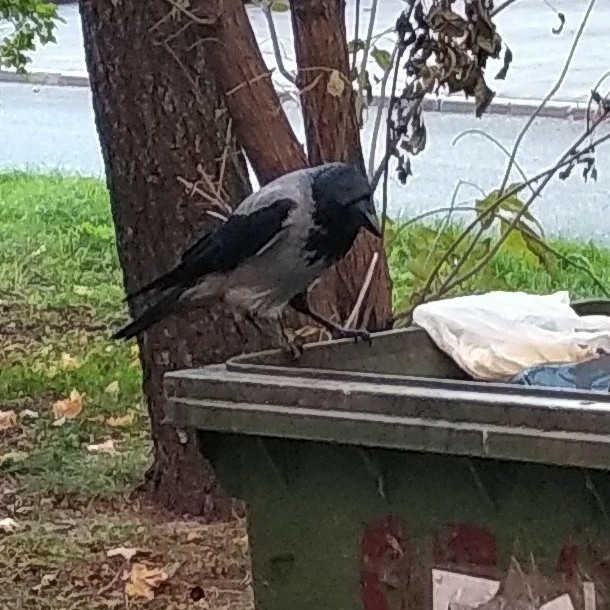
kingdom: Animalia
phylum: Chordata
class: Aves
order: Passeriformes
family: Corvidae
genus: Corvus
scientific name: Corvus cornix
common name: Hooded crow
